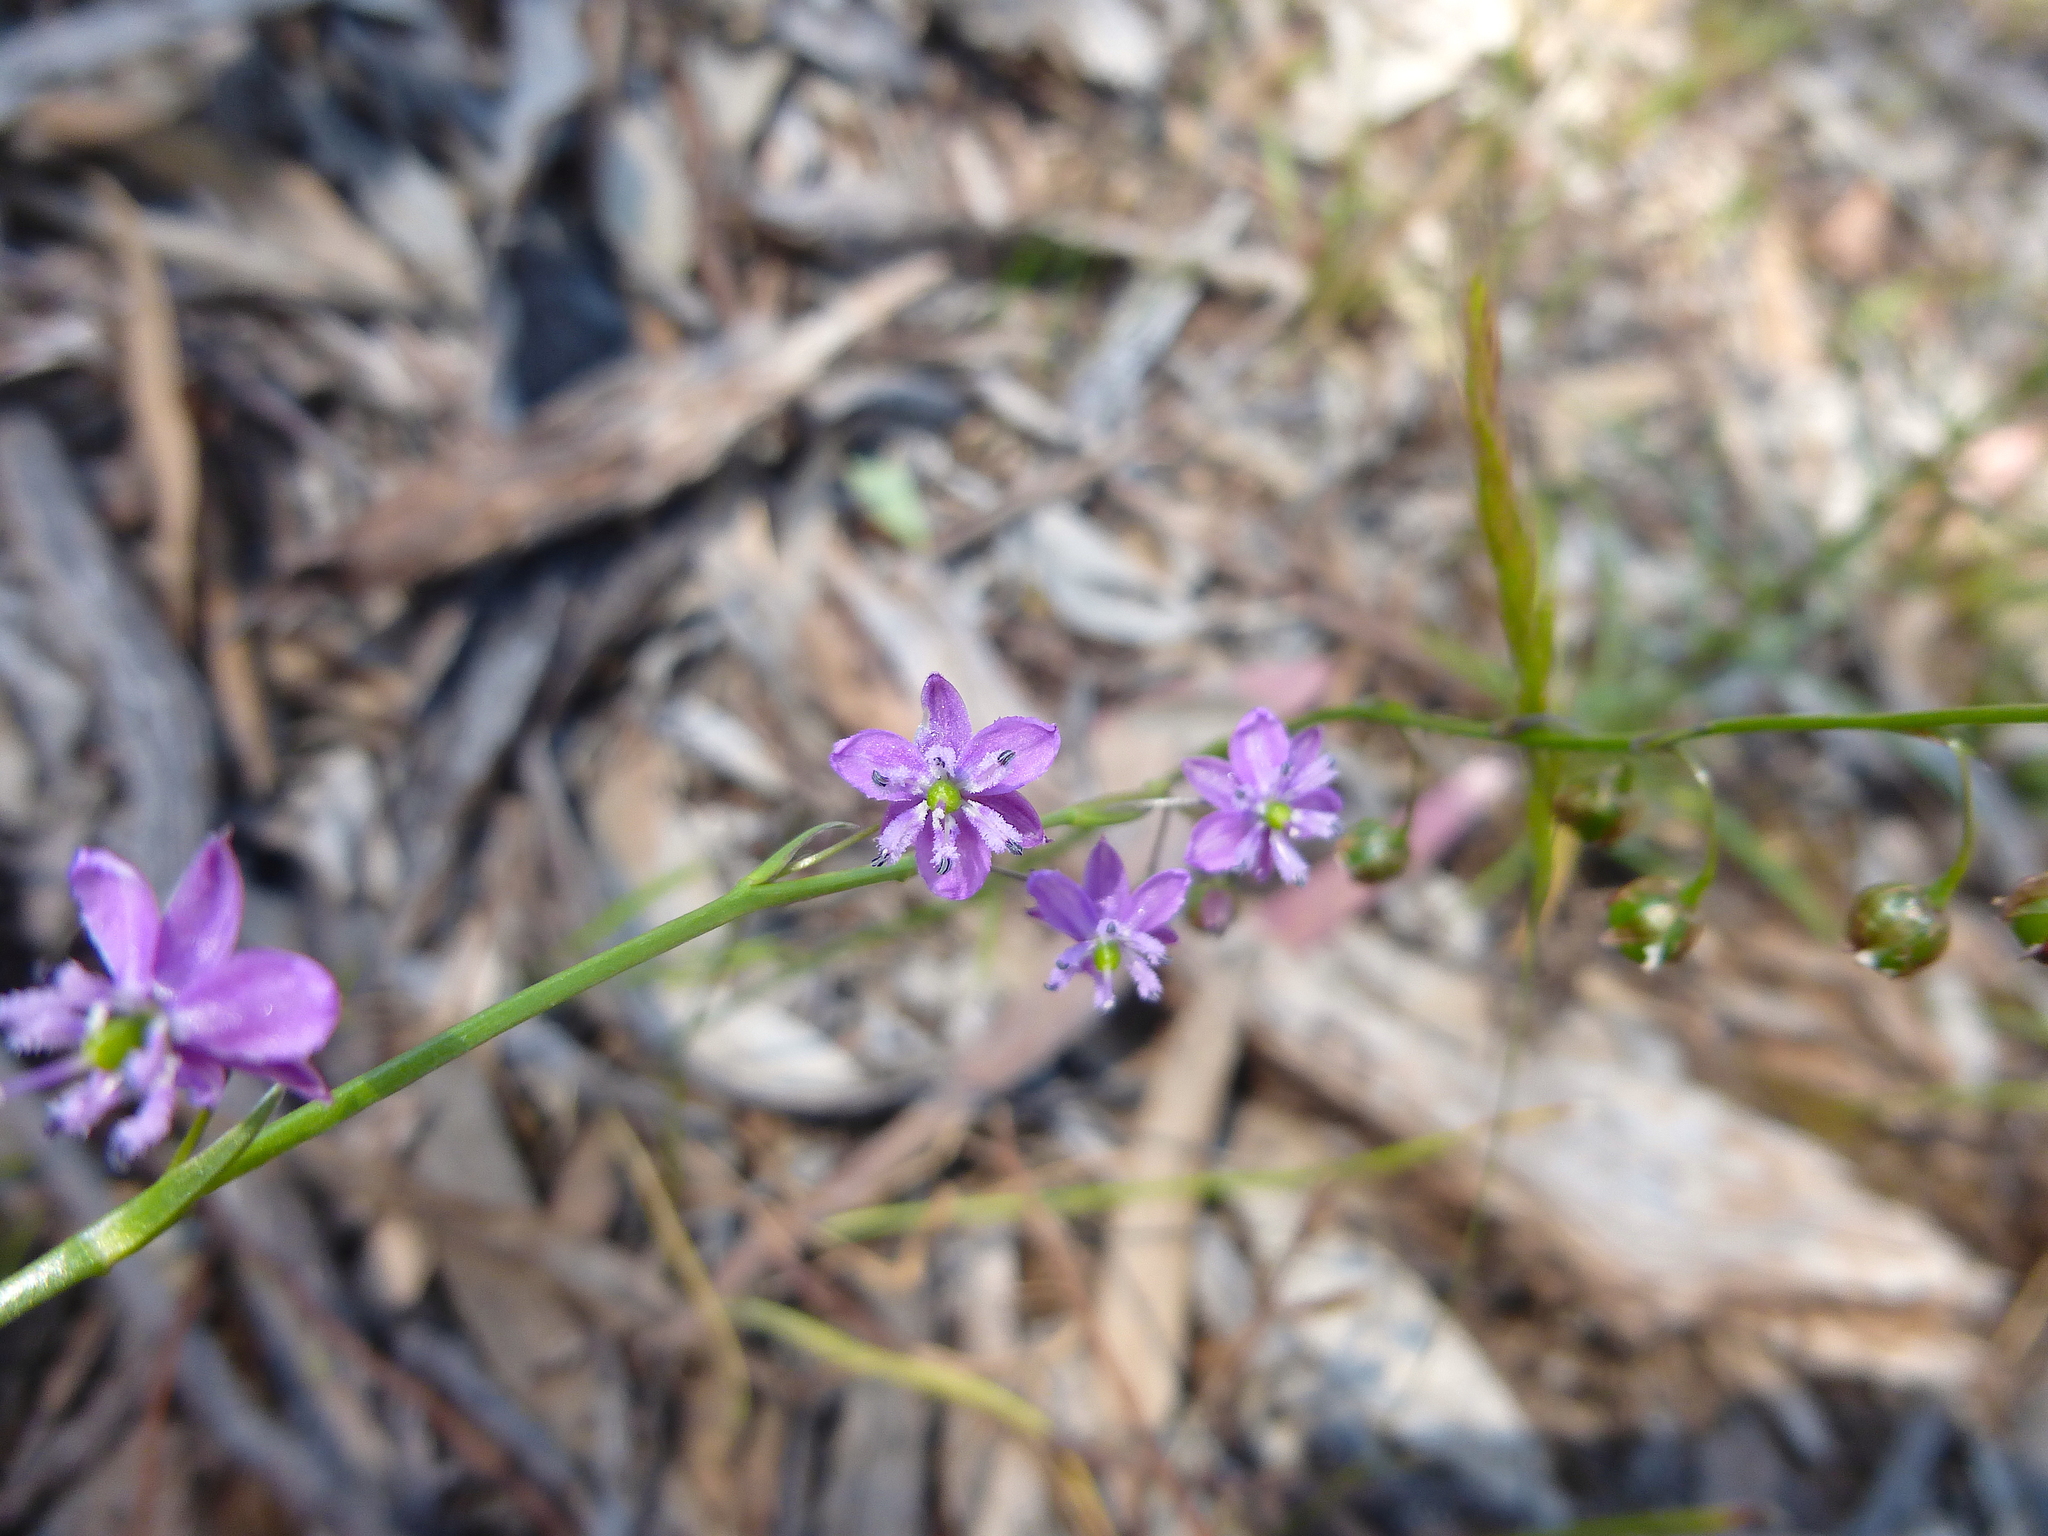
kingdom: Plantae
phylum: Tracheophyta
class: Liliopsida
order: Asparagales
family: Asparagaceae
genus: Arthropodium
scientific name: Arthropodium minus
